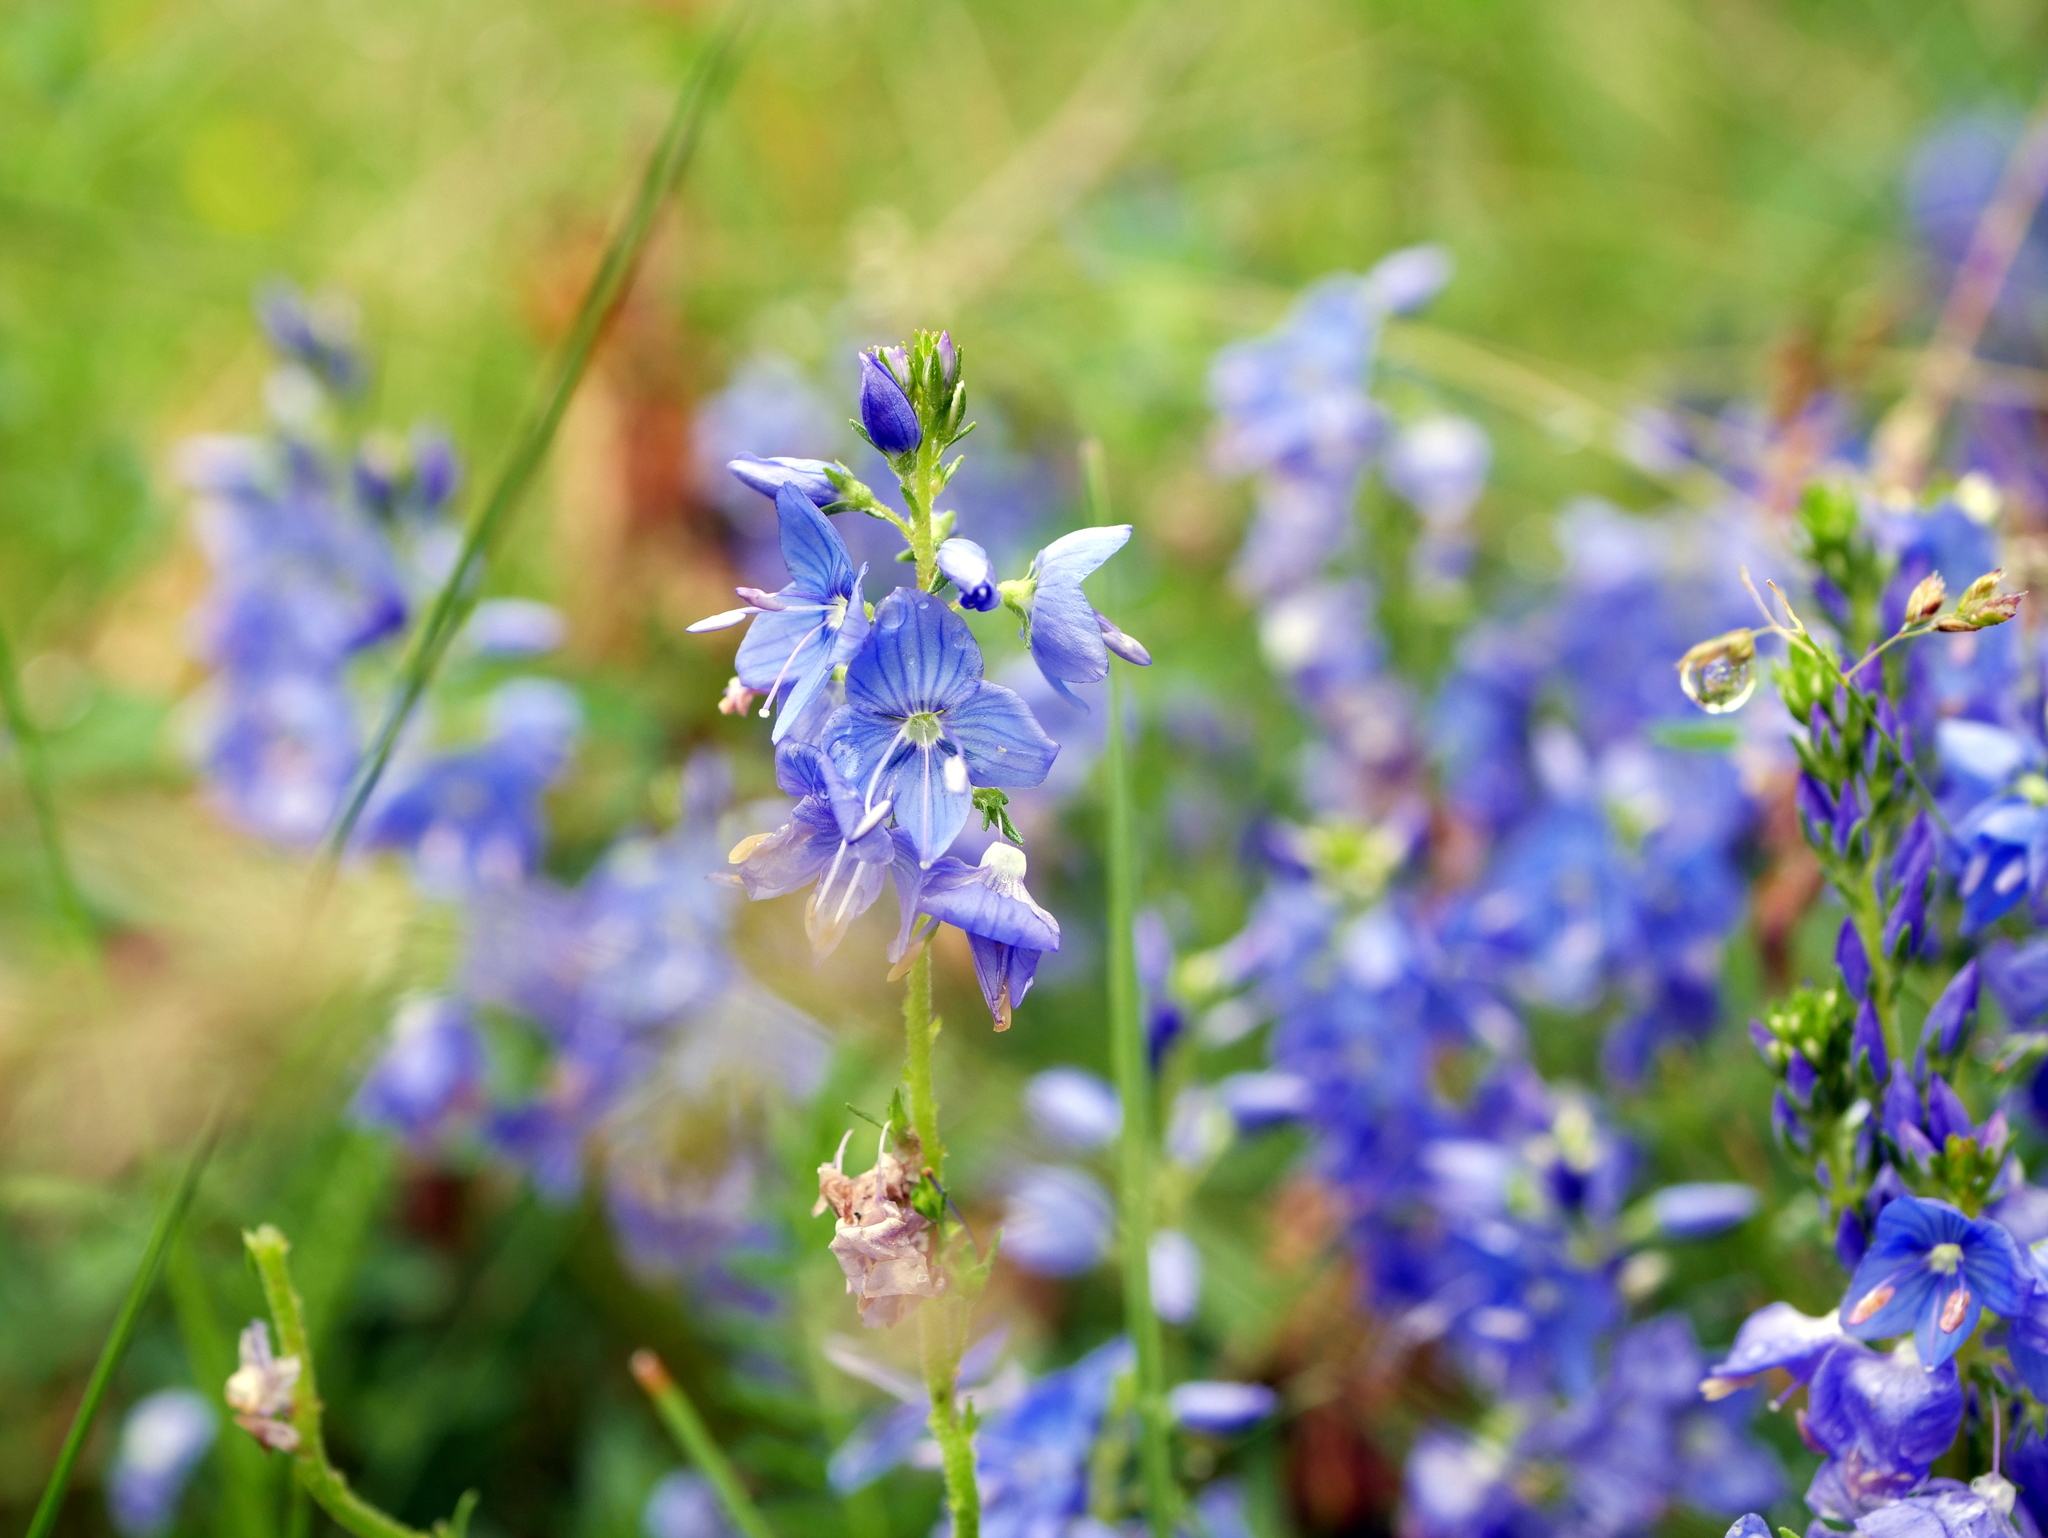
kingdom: Plantae
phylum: Tracheophyta
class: Magnoliopsida
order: Lamiales
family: Plantaginaceae
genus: Veronica
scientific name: Veronica teucrium
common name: Large speedwell
